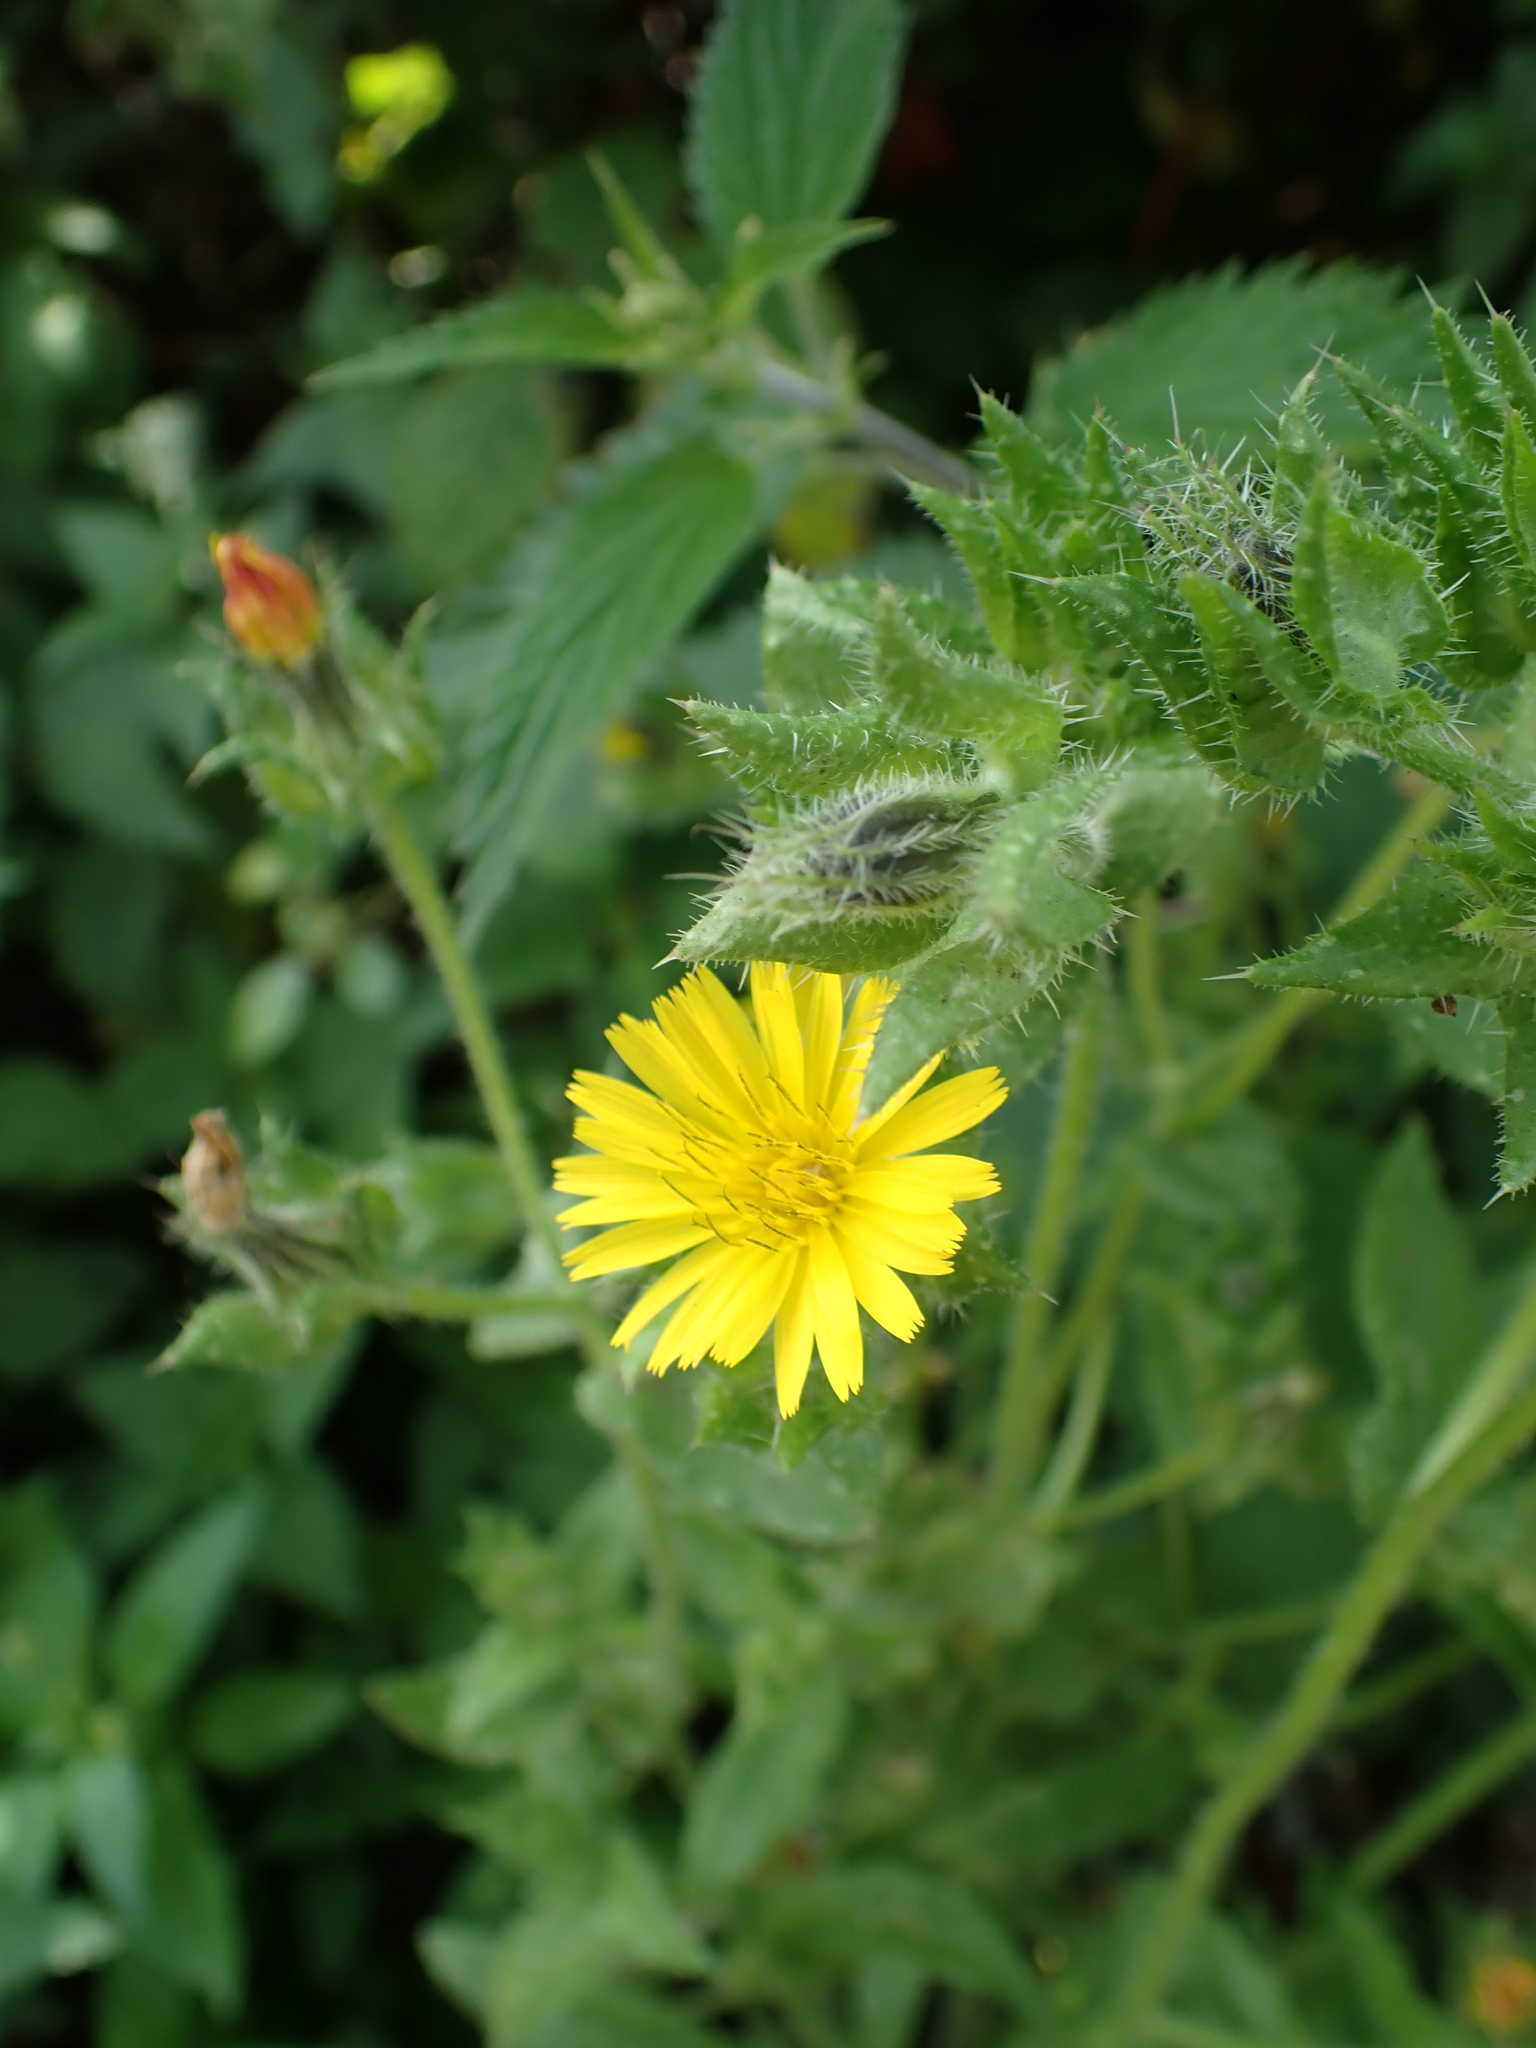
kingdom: Plantae
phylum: Tracheophyta
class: Magnoliopsida
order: Asterales
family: Asteraceae
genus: Helminthotheca
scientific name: Helminthotheca echioides
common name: Ox-tongue
